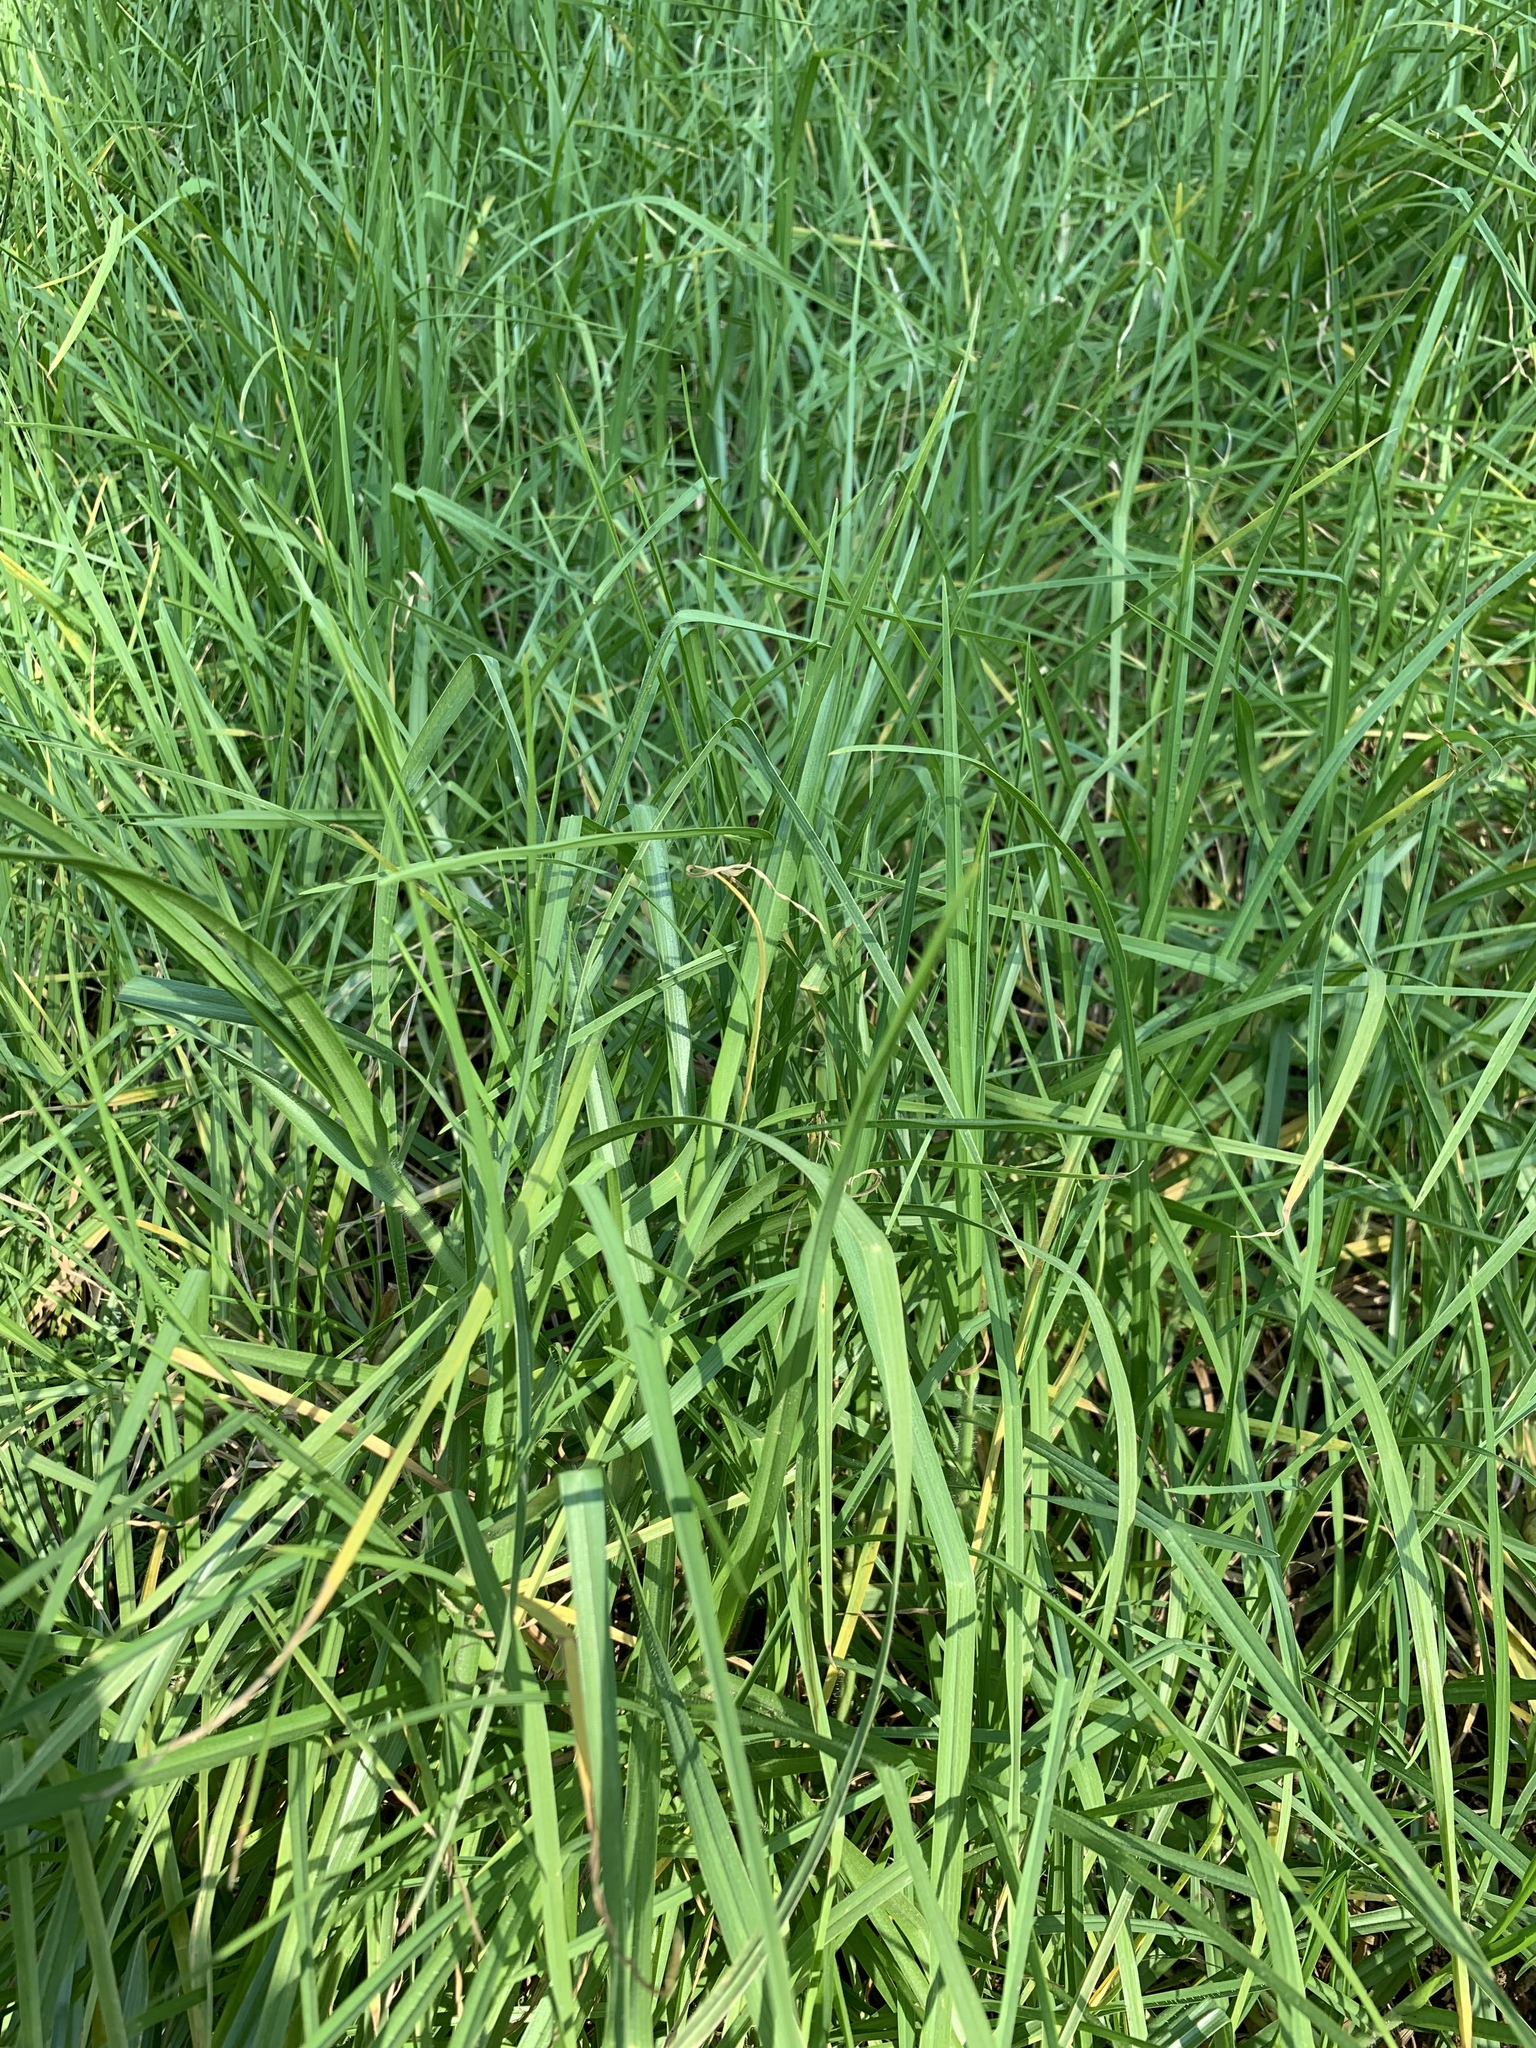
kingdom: Plantae
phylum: Tracheophyta
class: Liliopsida
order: Poales
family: Poaceae
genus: Cenchrus
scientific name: Cenchrus clandestinus
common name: Kikuyugrass
